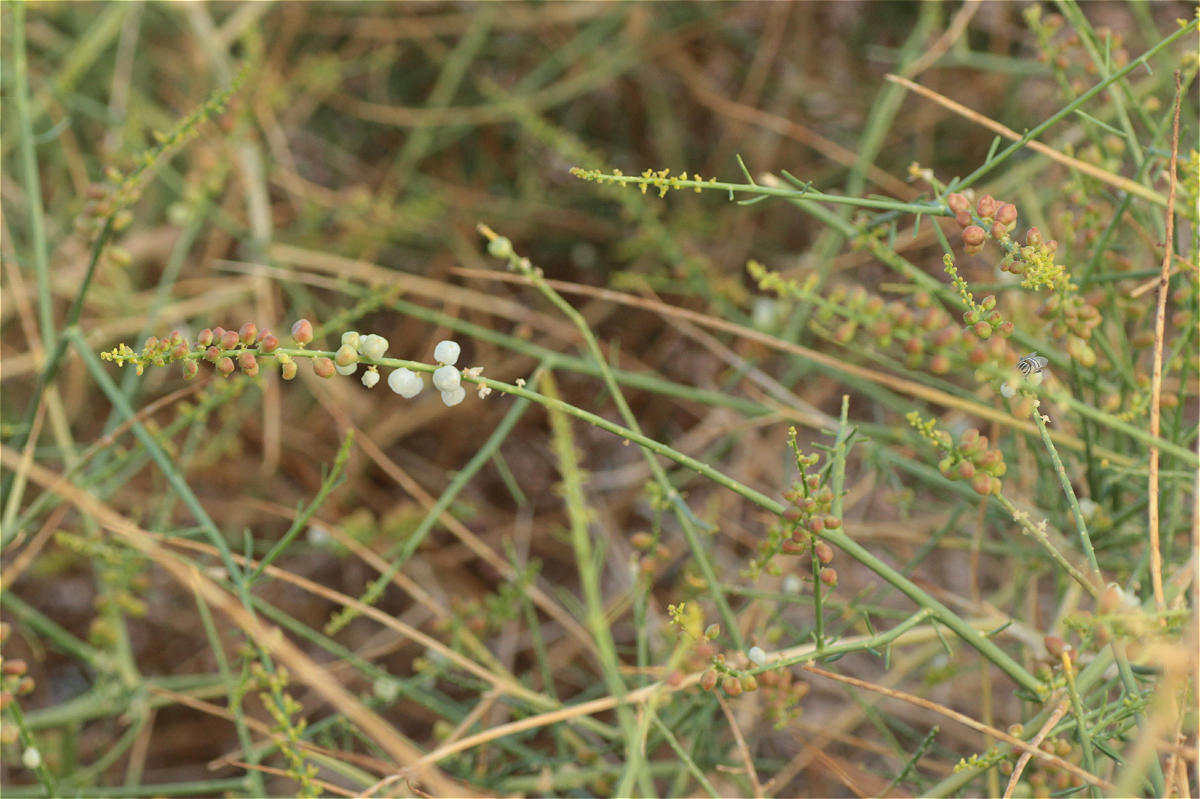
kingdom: Plantae
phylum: Tracheophyta
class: Magnoliopsida
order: Brassicales
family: Resedaceae
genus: Ochradenus
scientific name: Ochradenus baccatus
